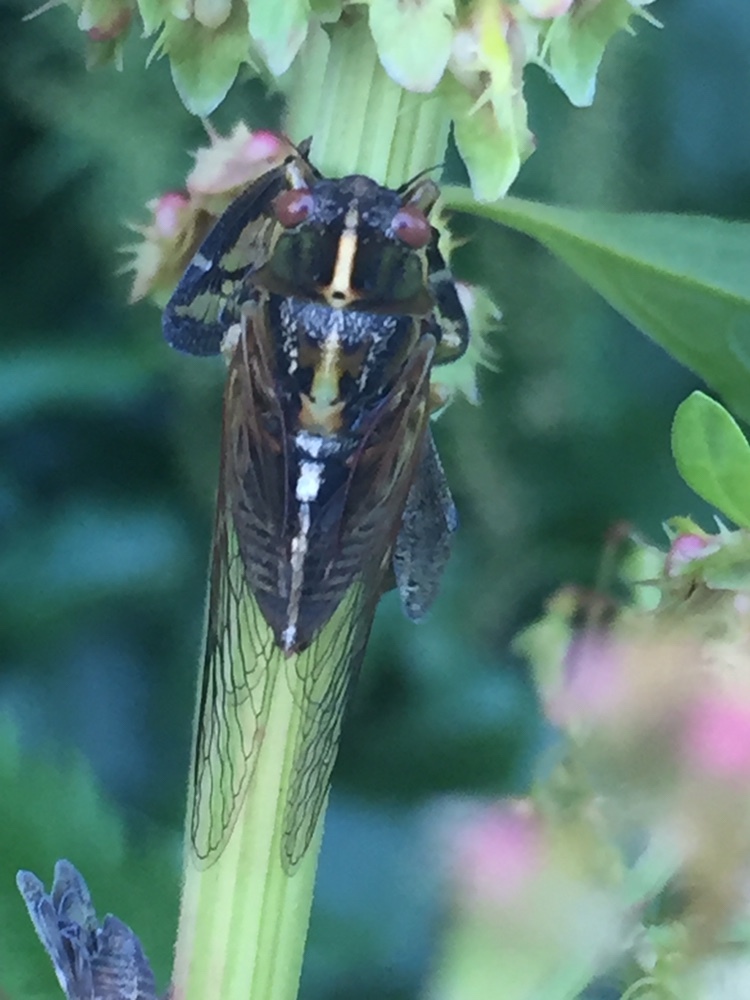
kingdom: Animalia
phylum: Arthropoda
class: Insecta
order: Hemiptera
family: Cicadidae
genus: Kikihia
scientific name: Kikihia muta
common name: Variable cicada
